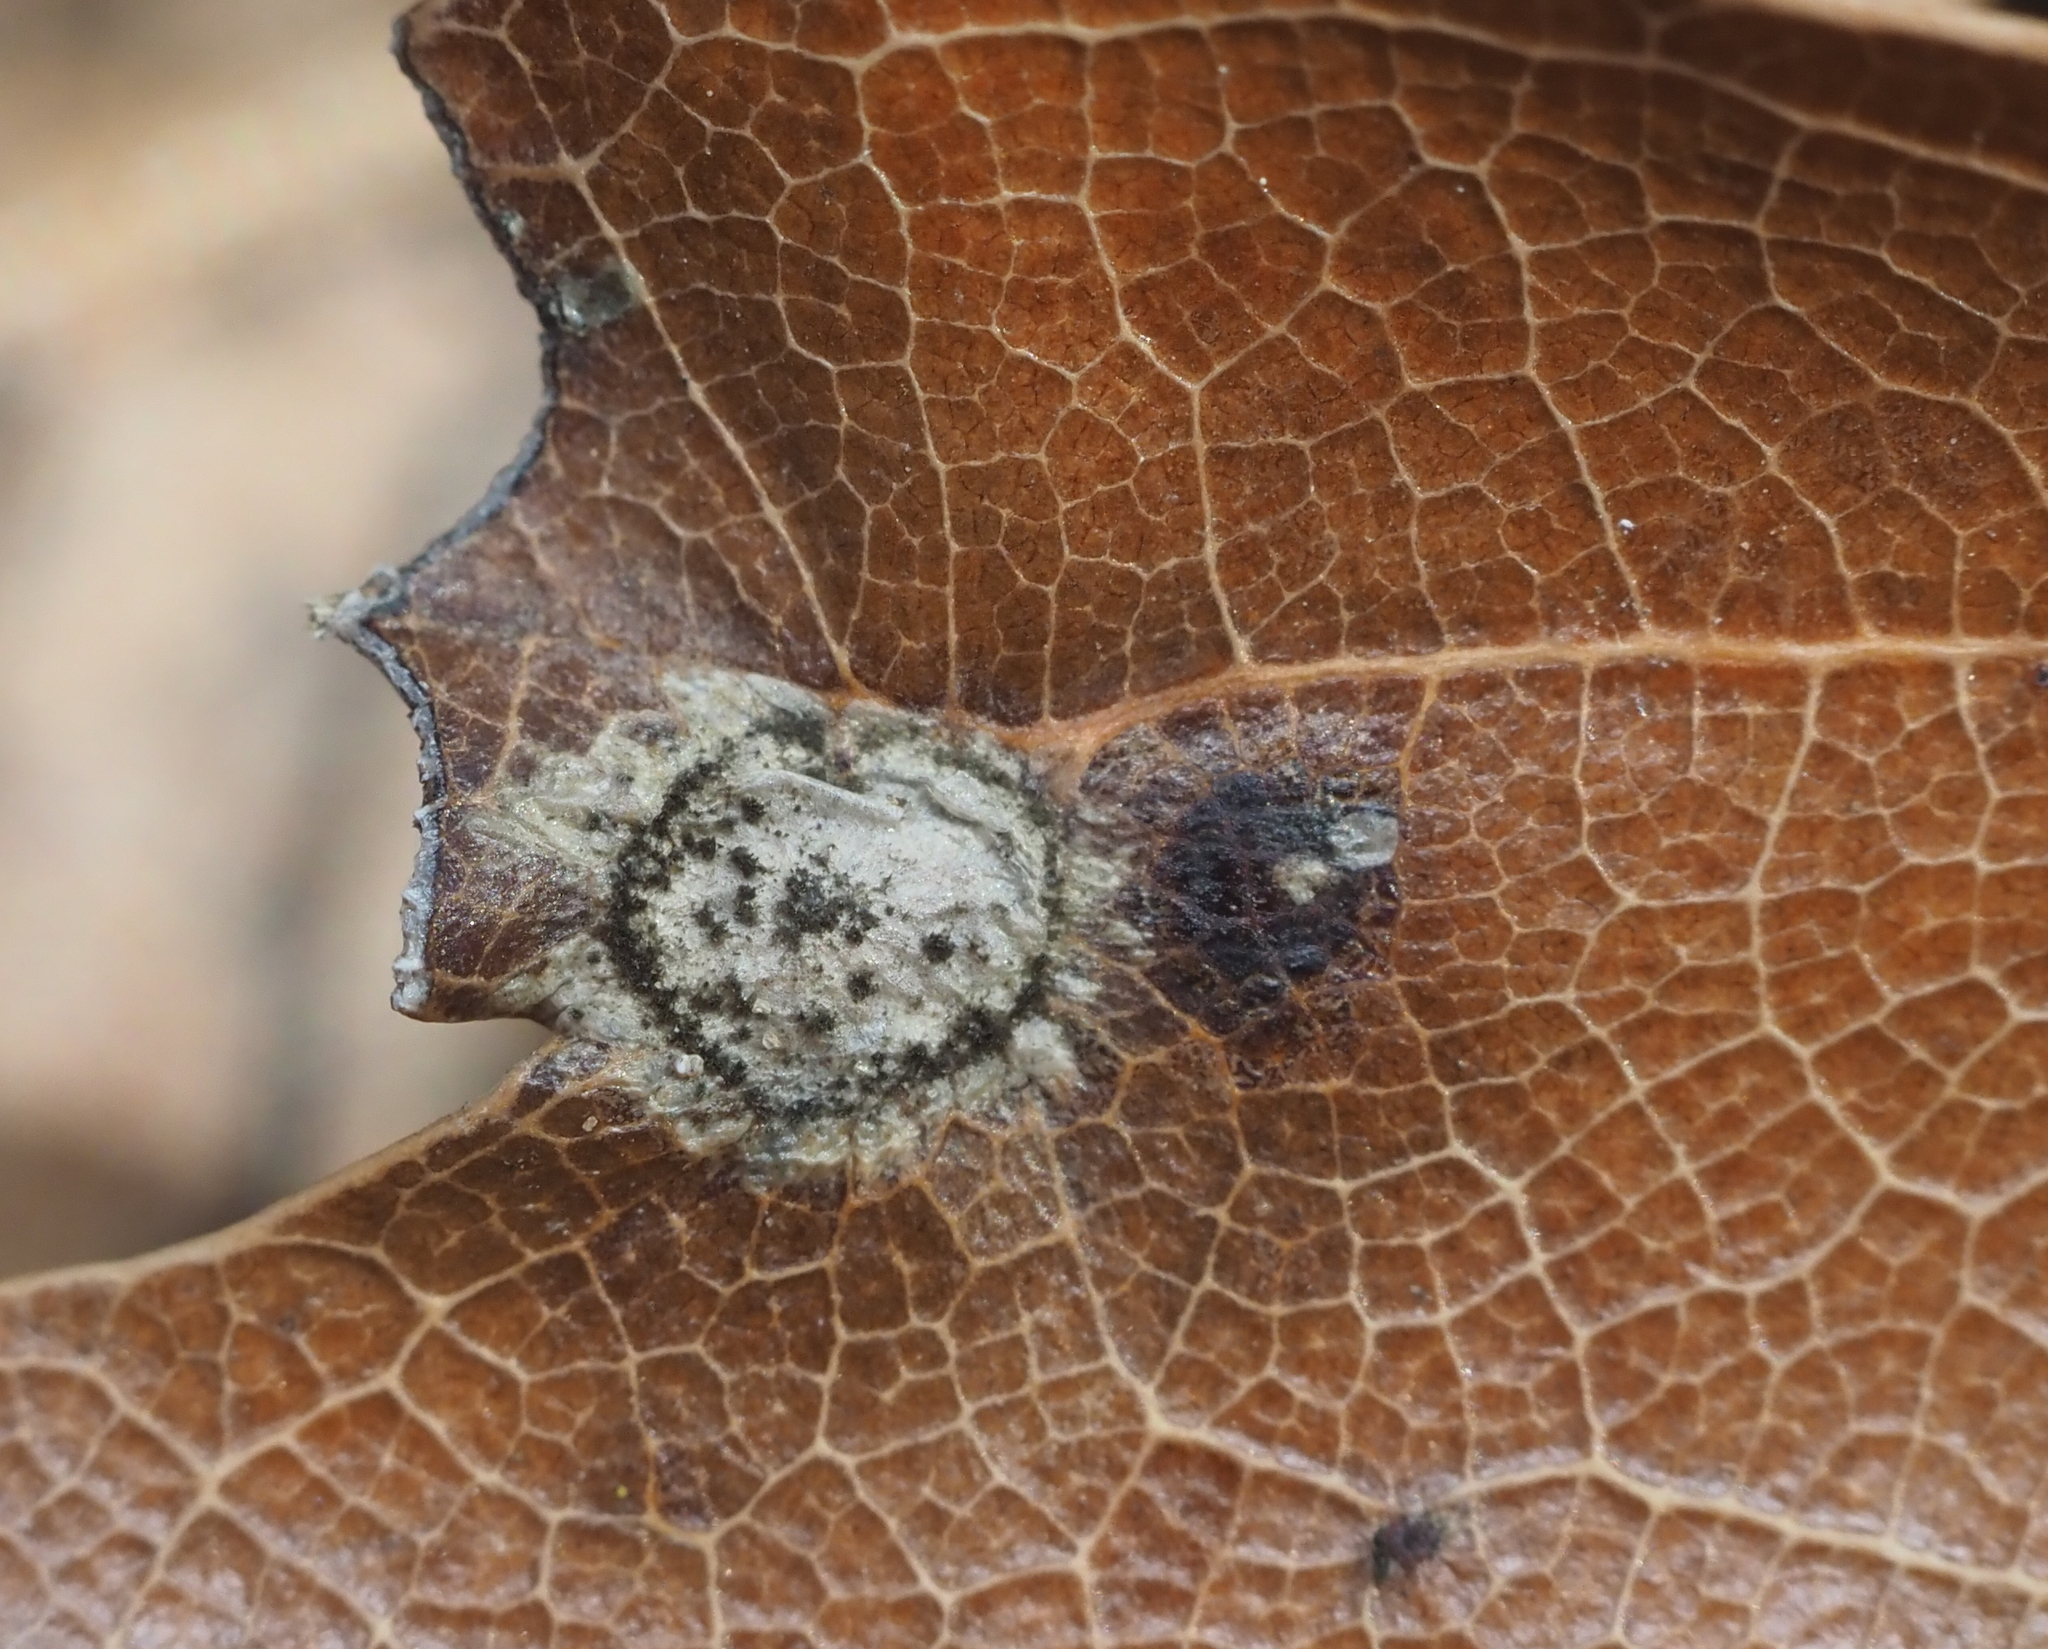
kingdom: Animalia
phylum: Arthropoda
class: Insecta
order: Hymenoptera
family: Cynipidae
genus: Dryocosmus
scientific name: Dryocosmus
